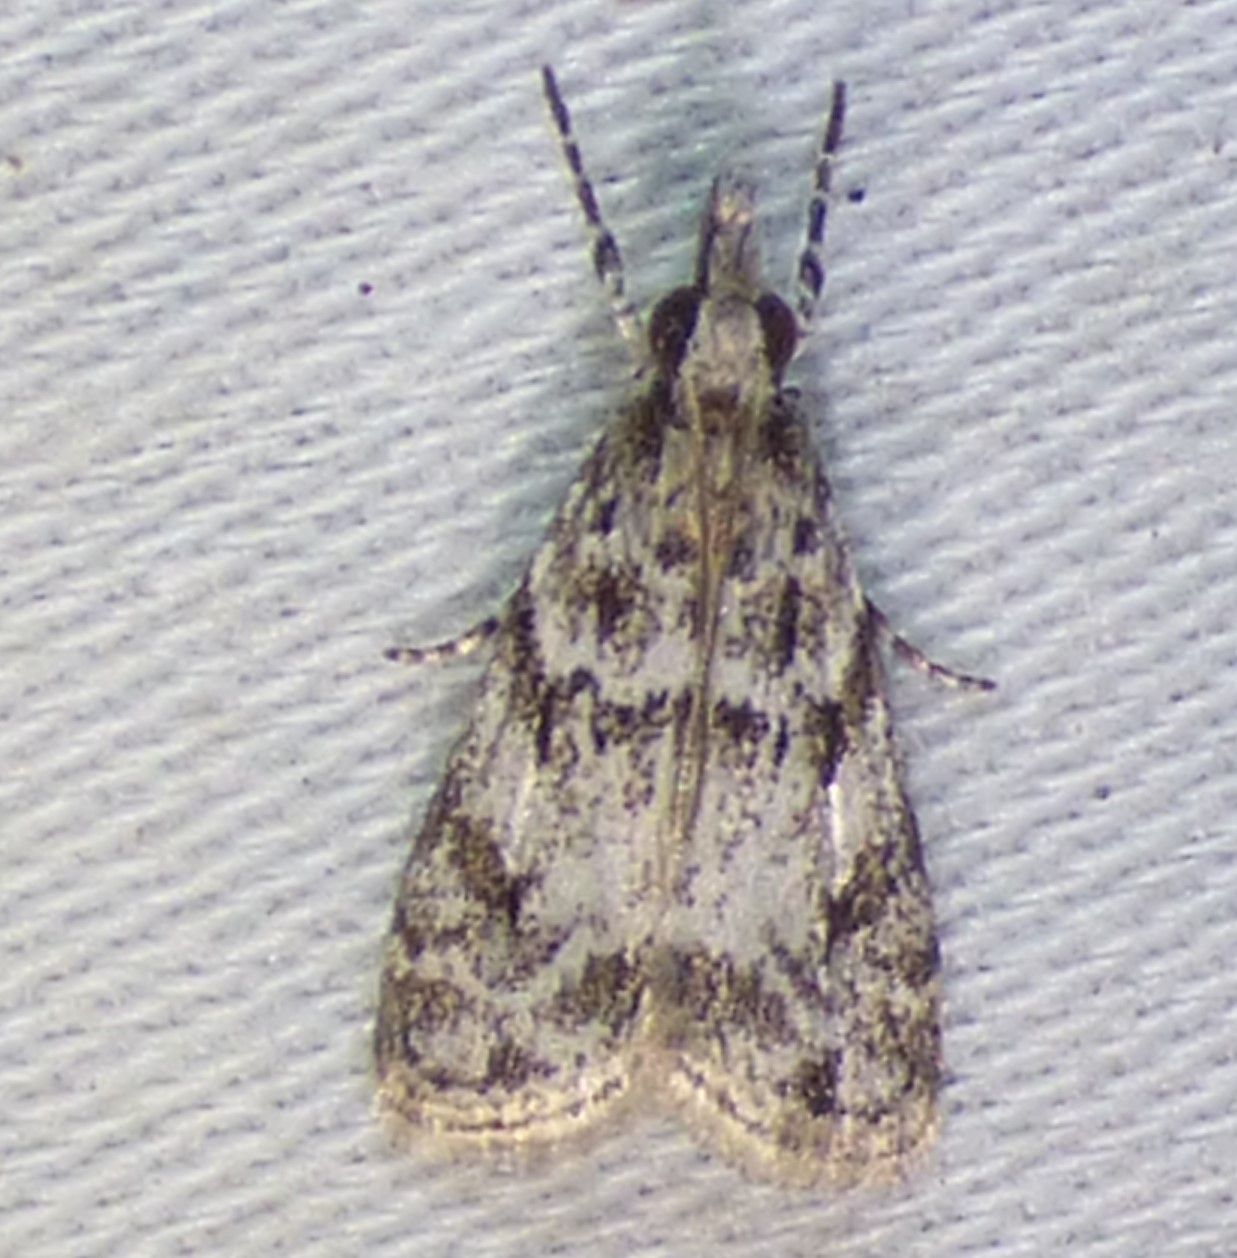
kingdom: Animalia
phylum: Arthropoda
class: Insecta
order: Lepidoptera
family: Crambidae
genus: Eudonia
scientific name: Eudonia heterosalis
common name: Mcdunnough's eudonia
